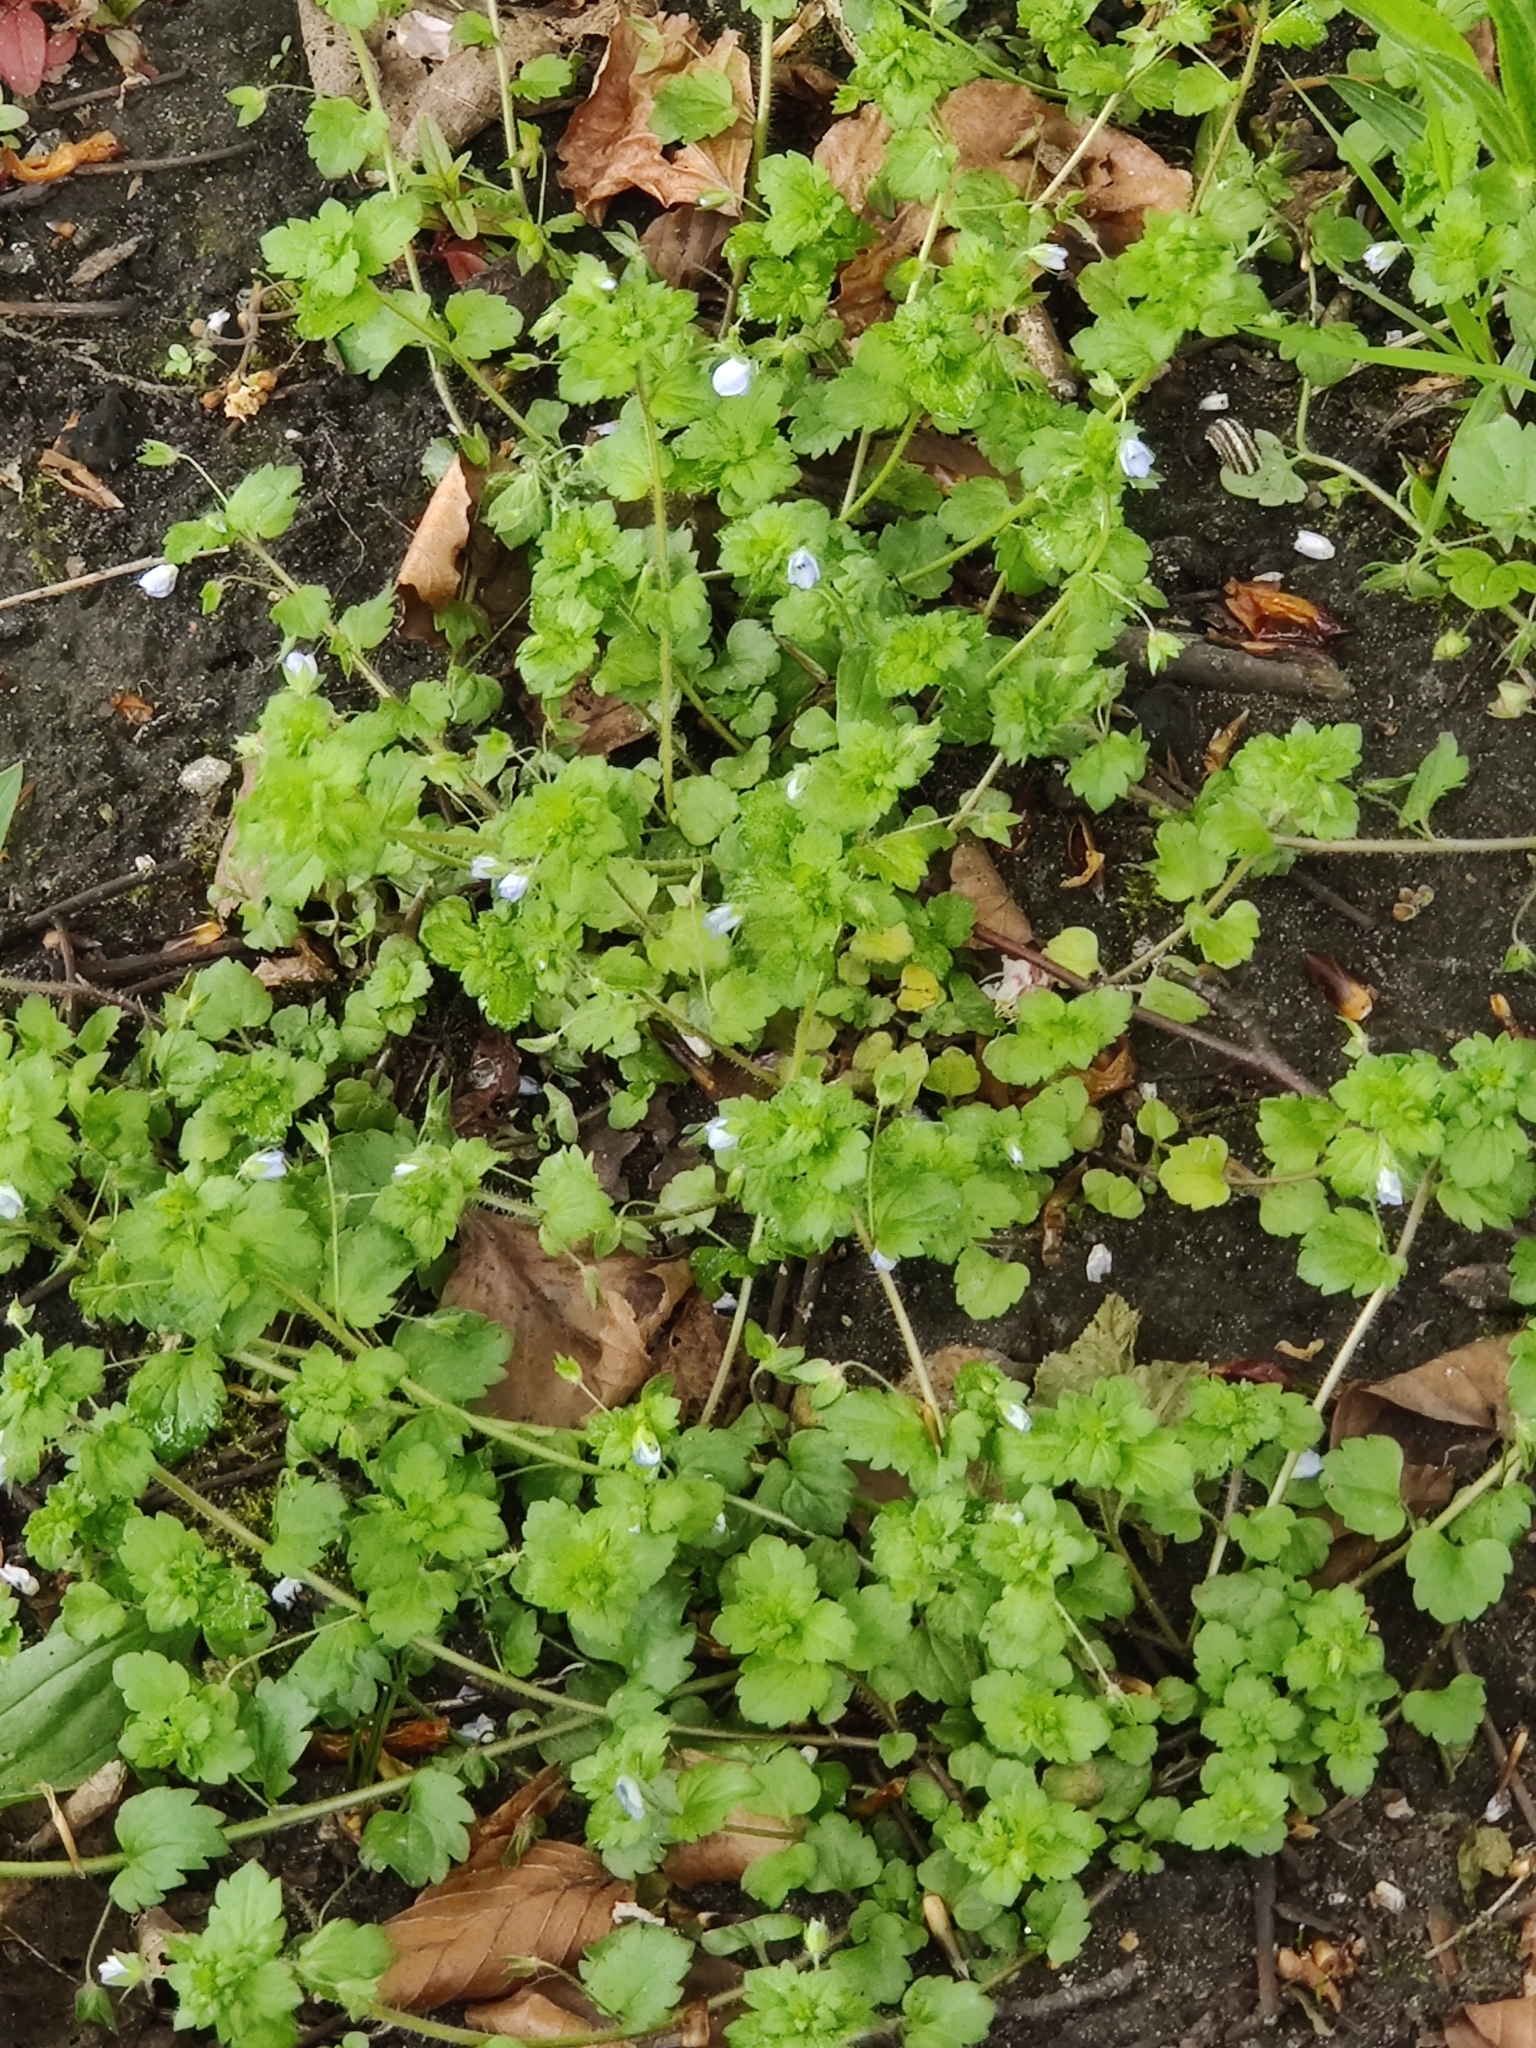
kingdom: Plantae
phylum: Tracheophyta
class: Magnoliopsida
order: Lamiales
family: Plantaginaceae
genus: Veronica
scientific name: Veronica persica
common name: Common field-speedwell
